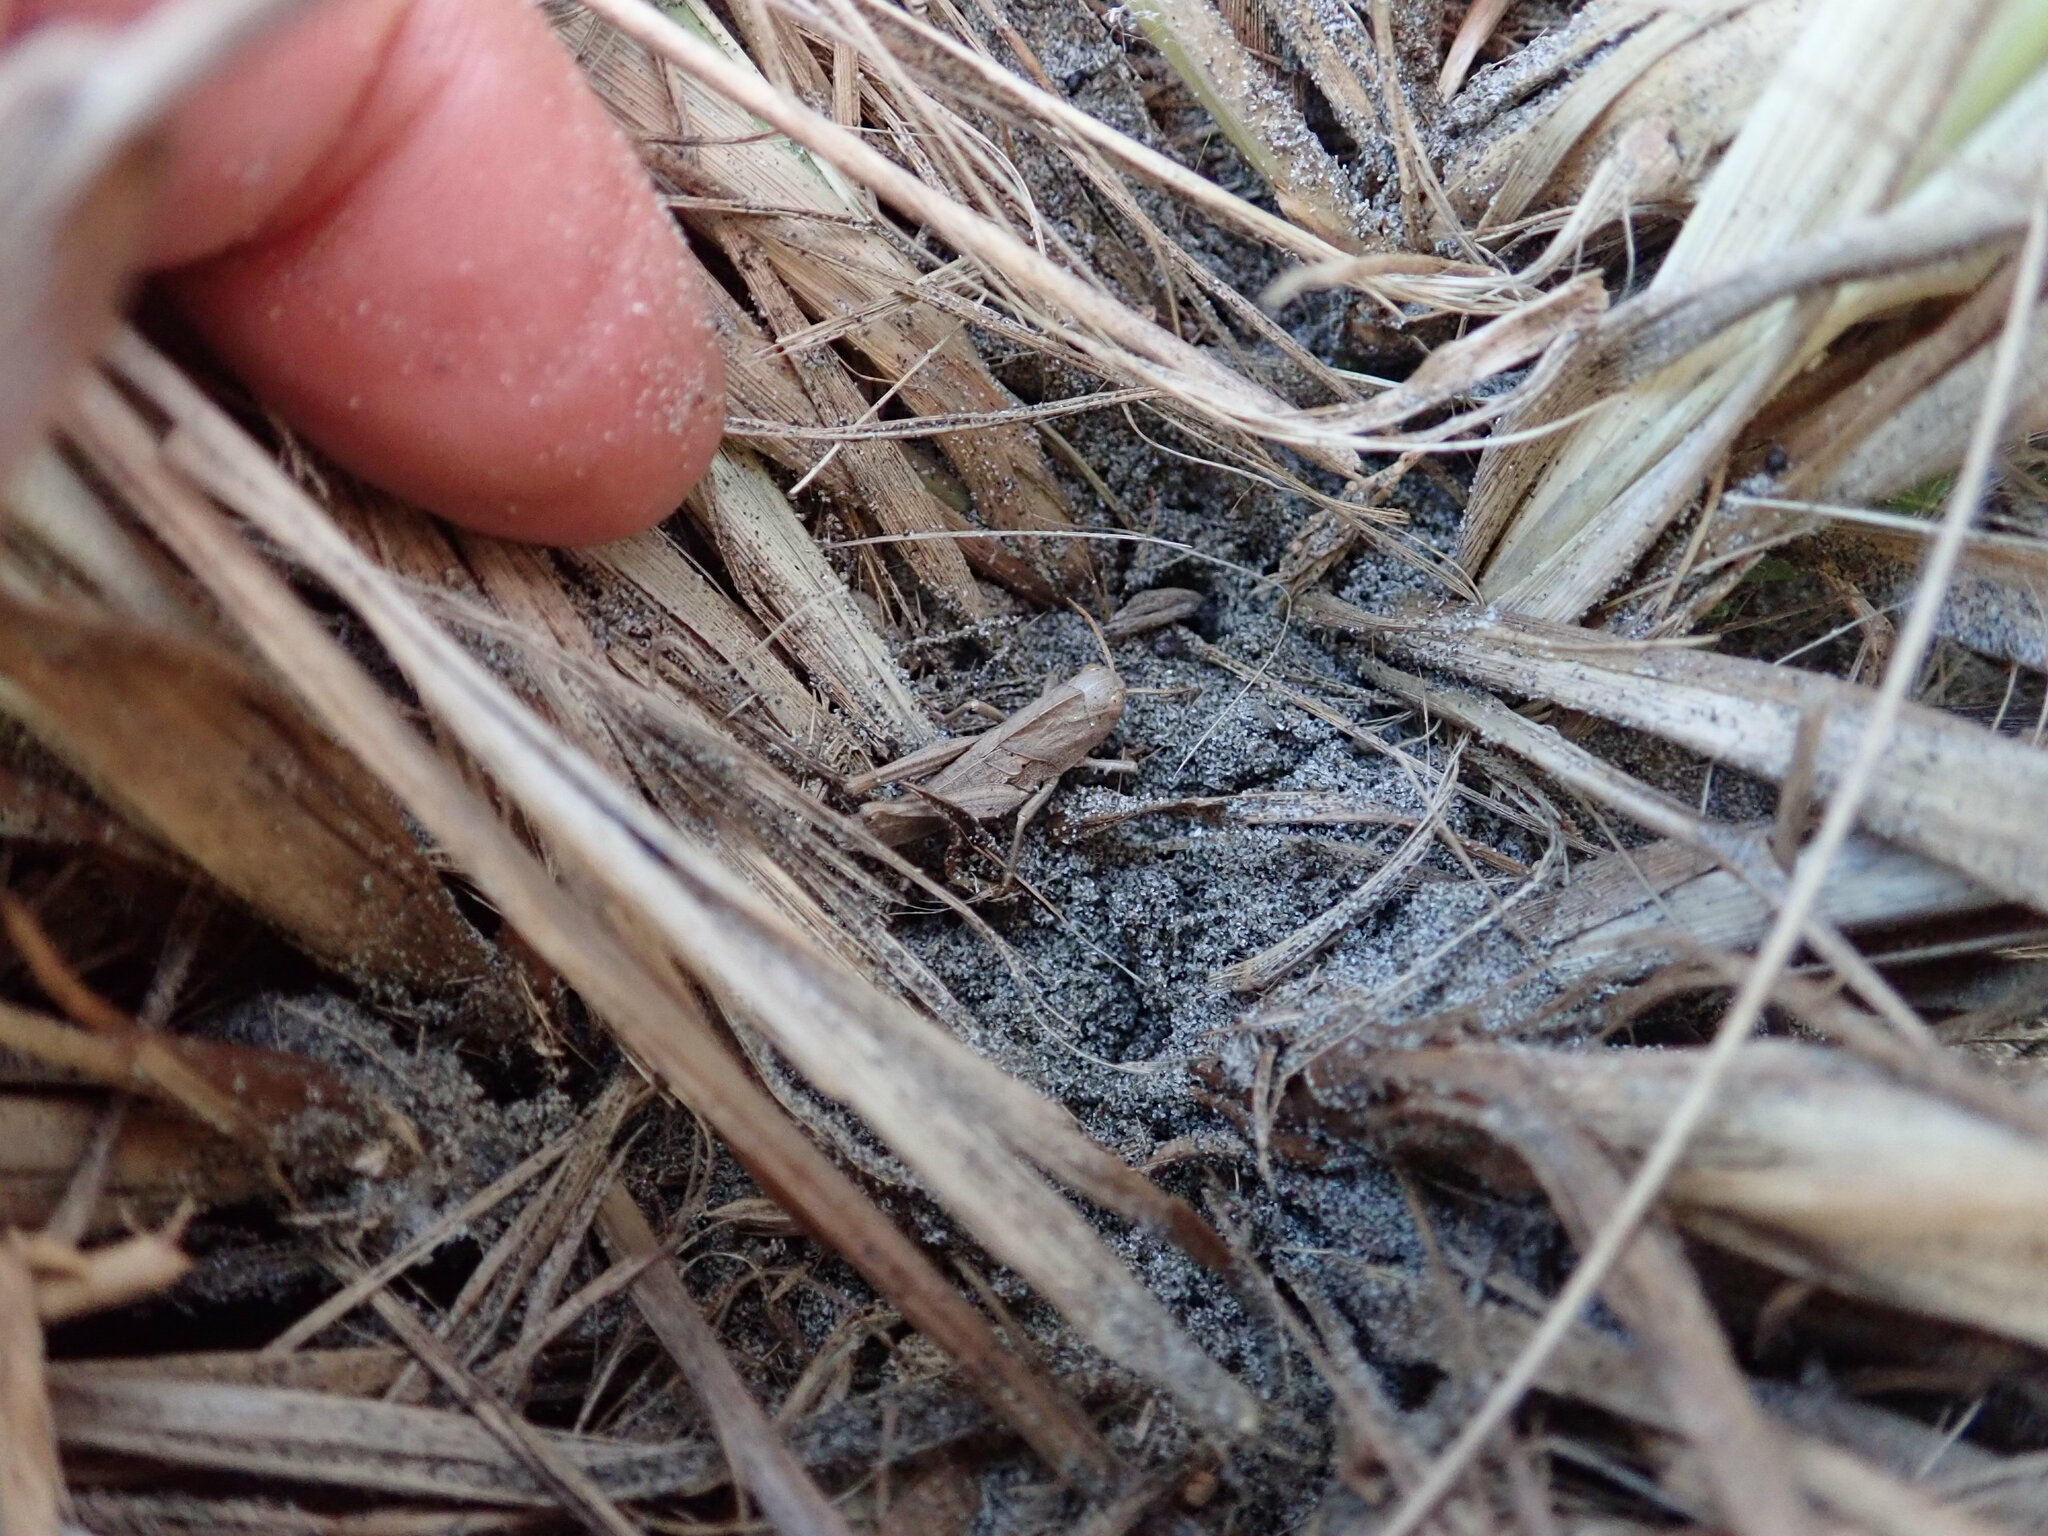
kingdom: Animalia
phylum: Arthropoda
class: Insecta
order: Orthoptera
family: Acrididae
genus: Locusta
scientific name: Locusta migratoria
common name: Migratory locust
